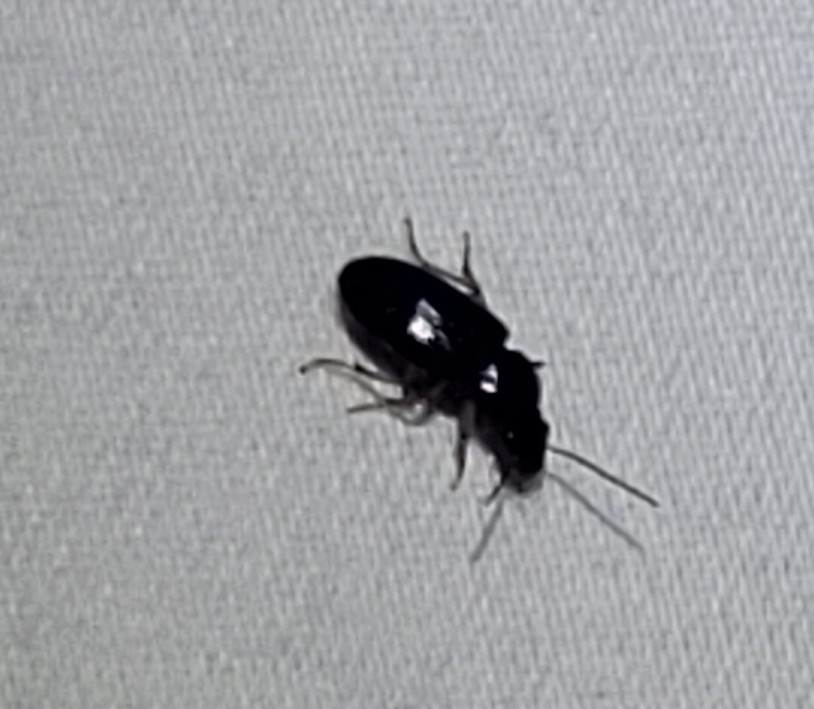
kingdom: Animalia
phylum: Arthropoda
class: Insecta
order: Coleoptera
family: Carabidae
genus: Stenolophus
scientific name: Stenolophus ochropezus
